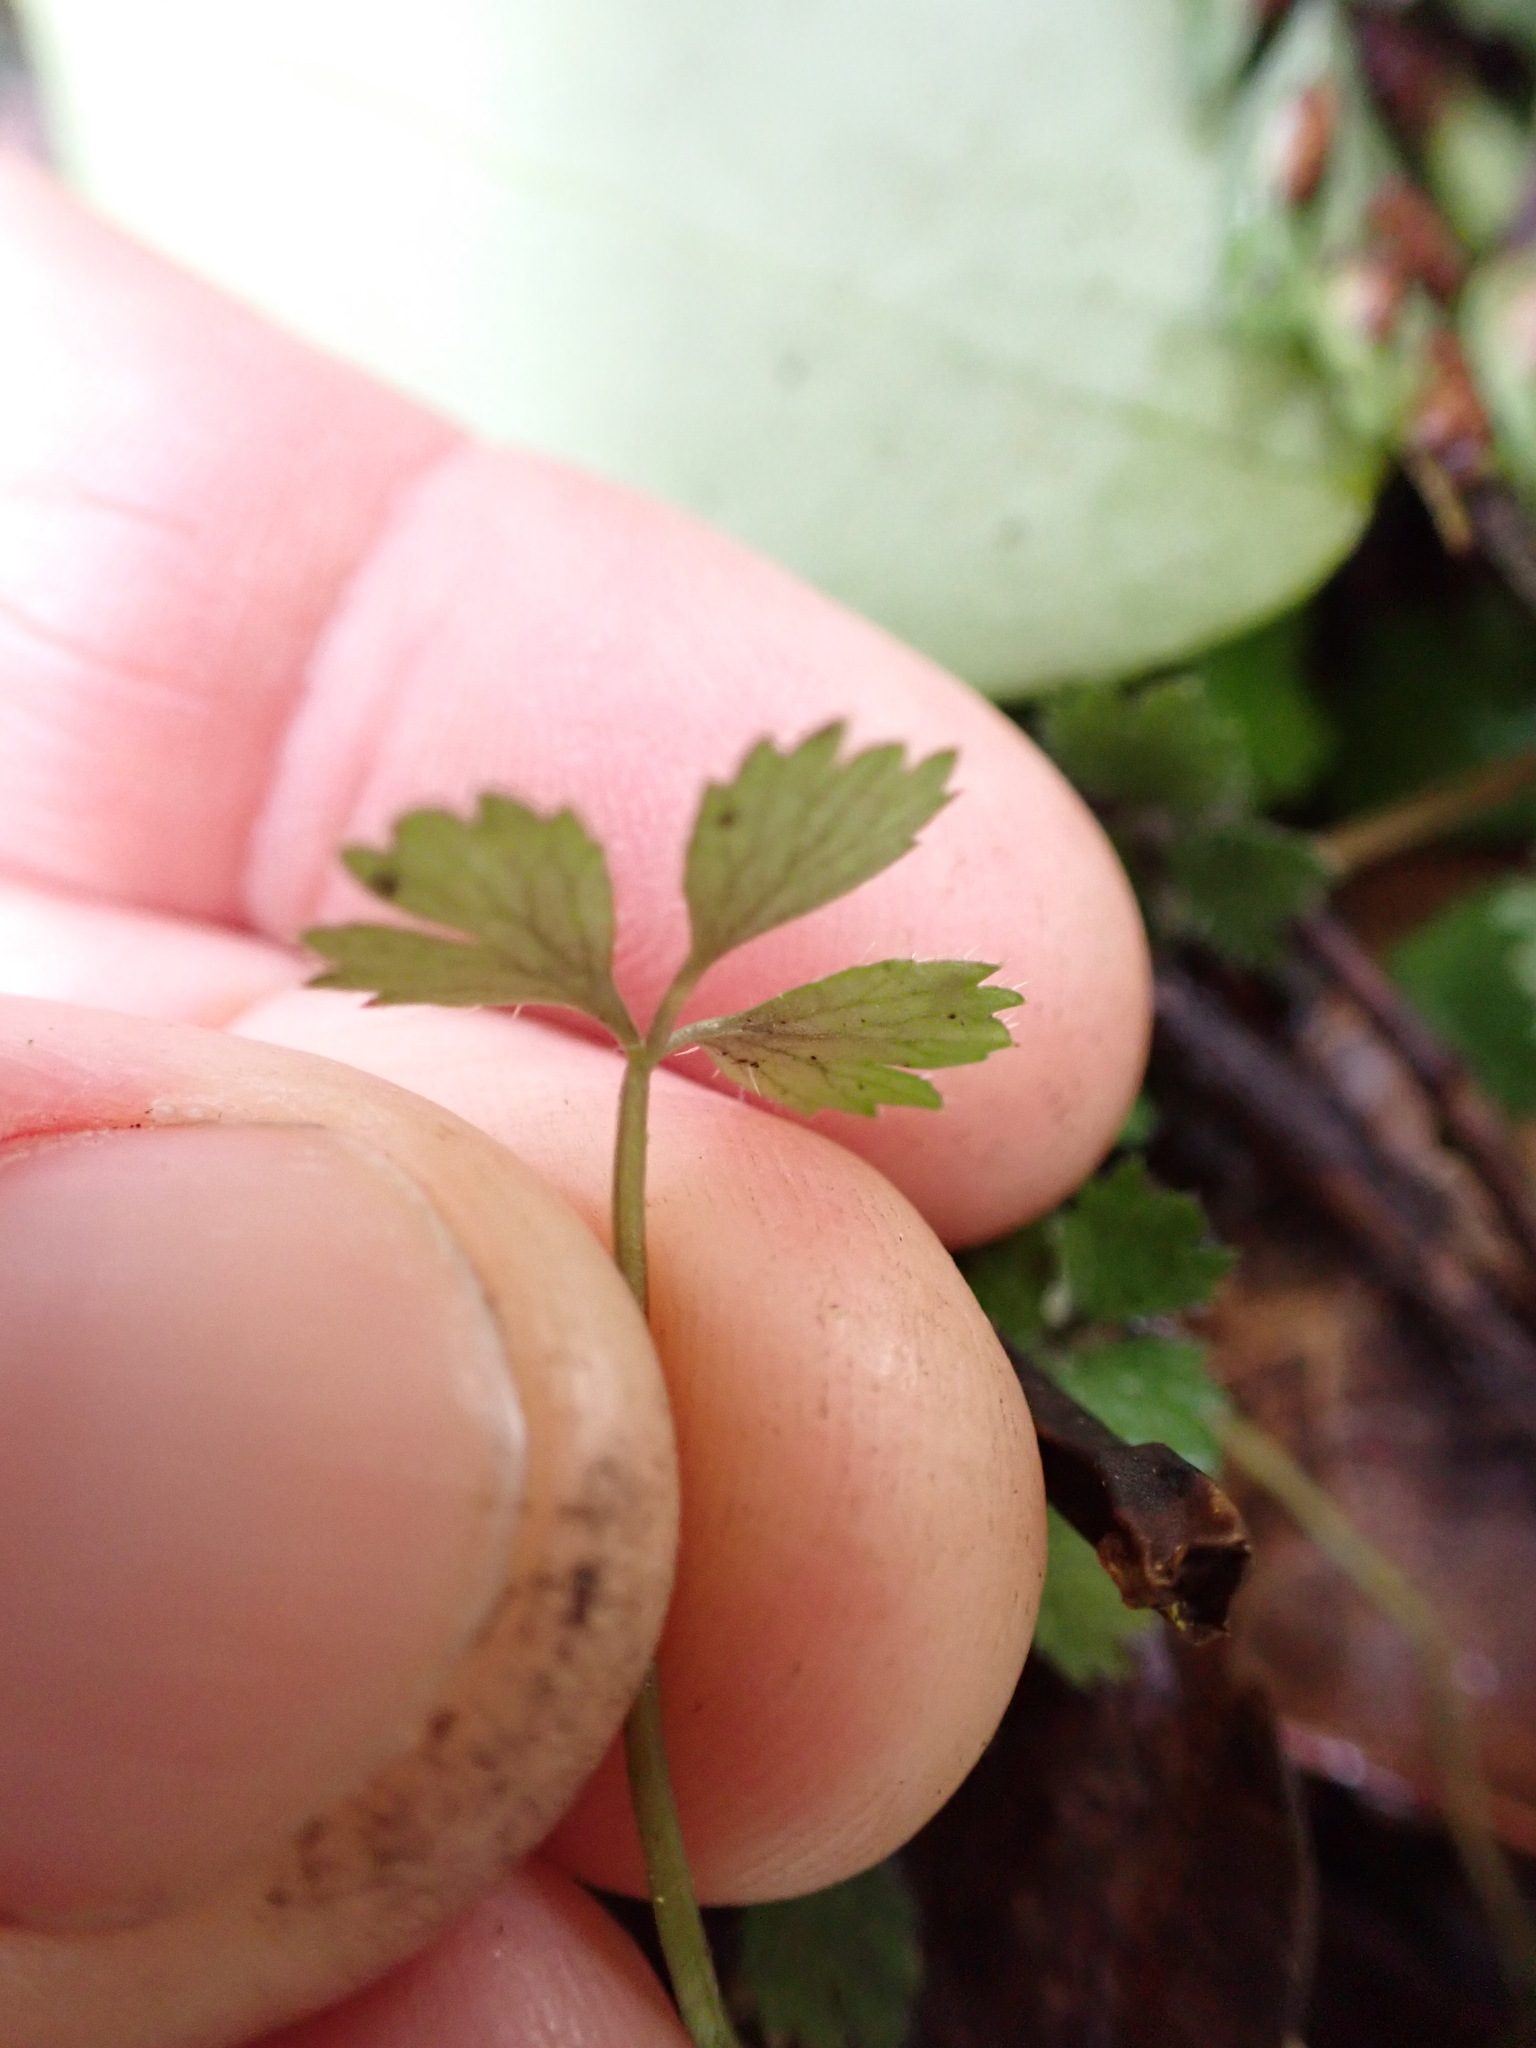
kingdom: Plantae
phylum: Tracheophyta
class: Magnoliopsida
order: Apiales
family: Apiaceae
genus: Azorella
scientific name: Azorella hookeri
